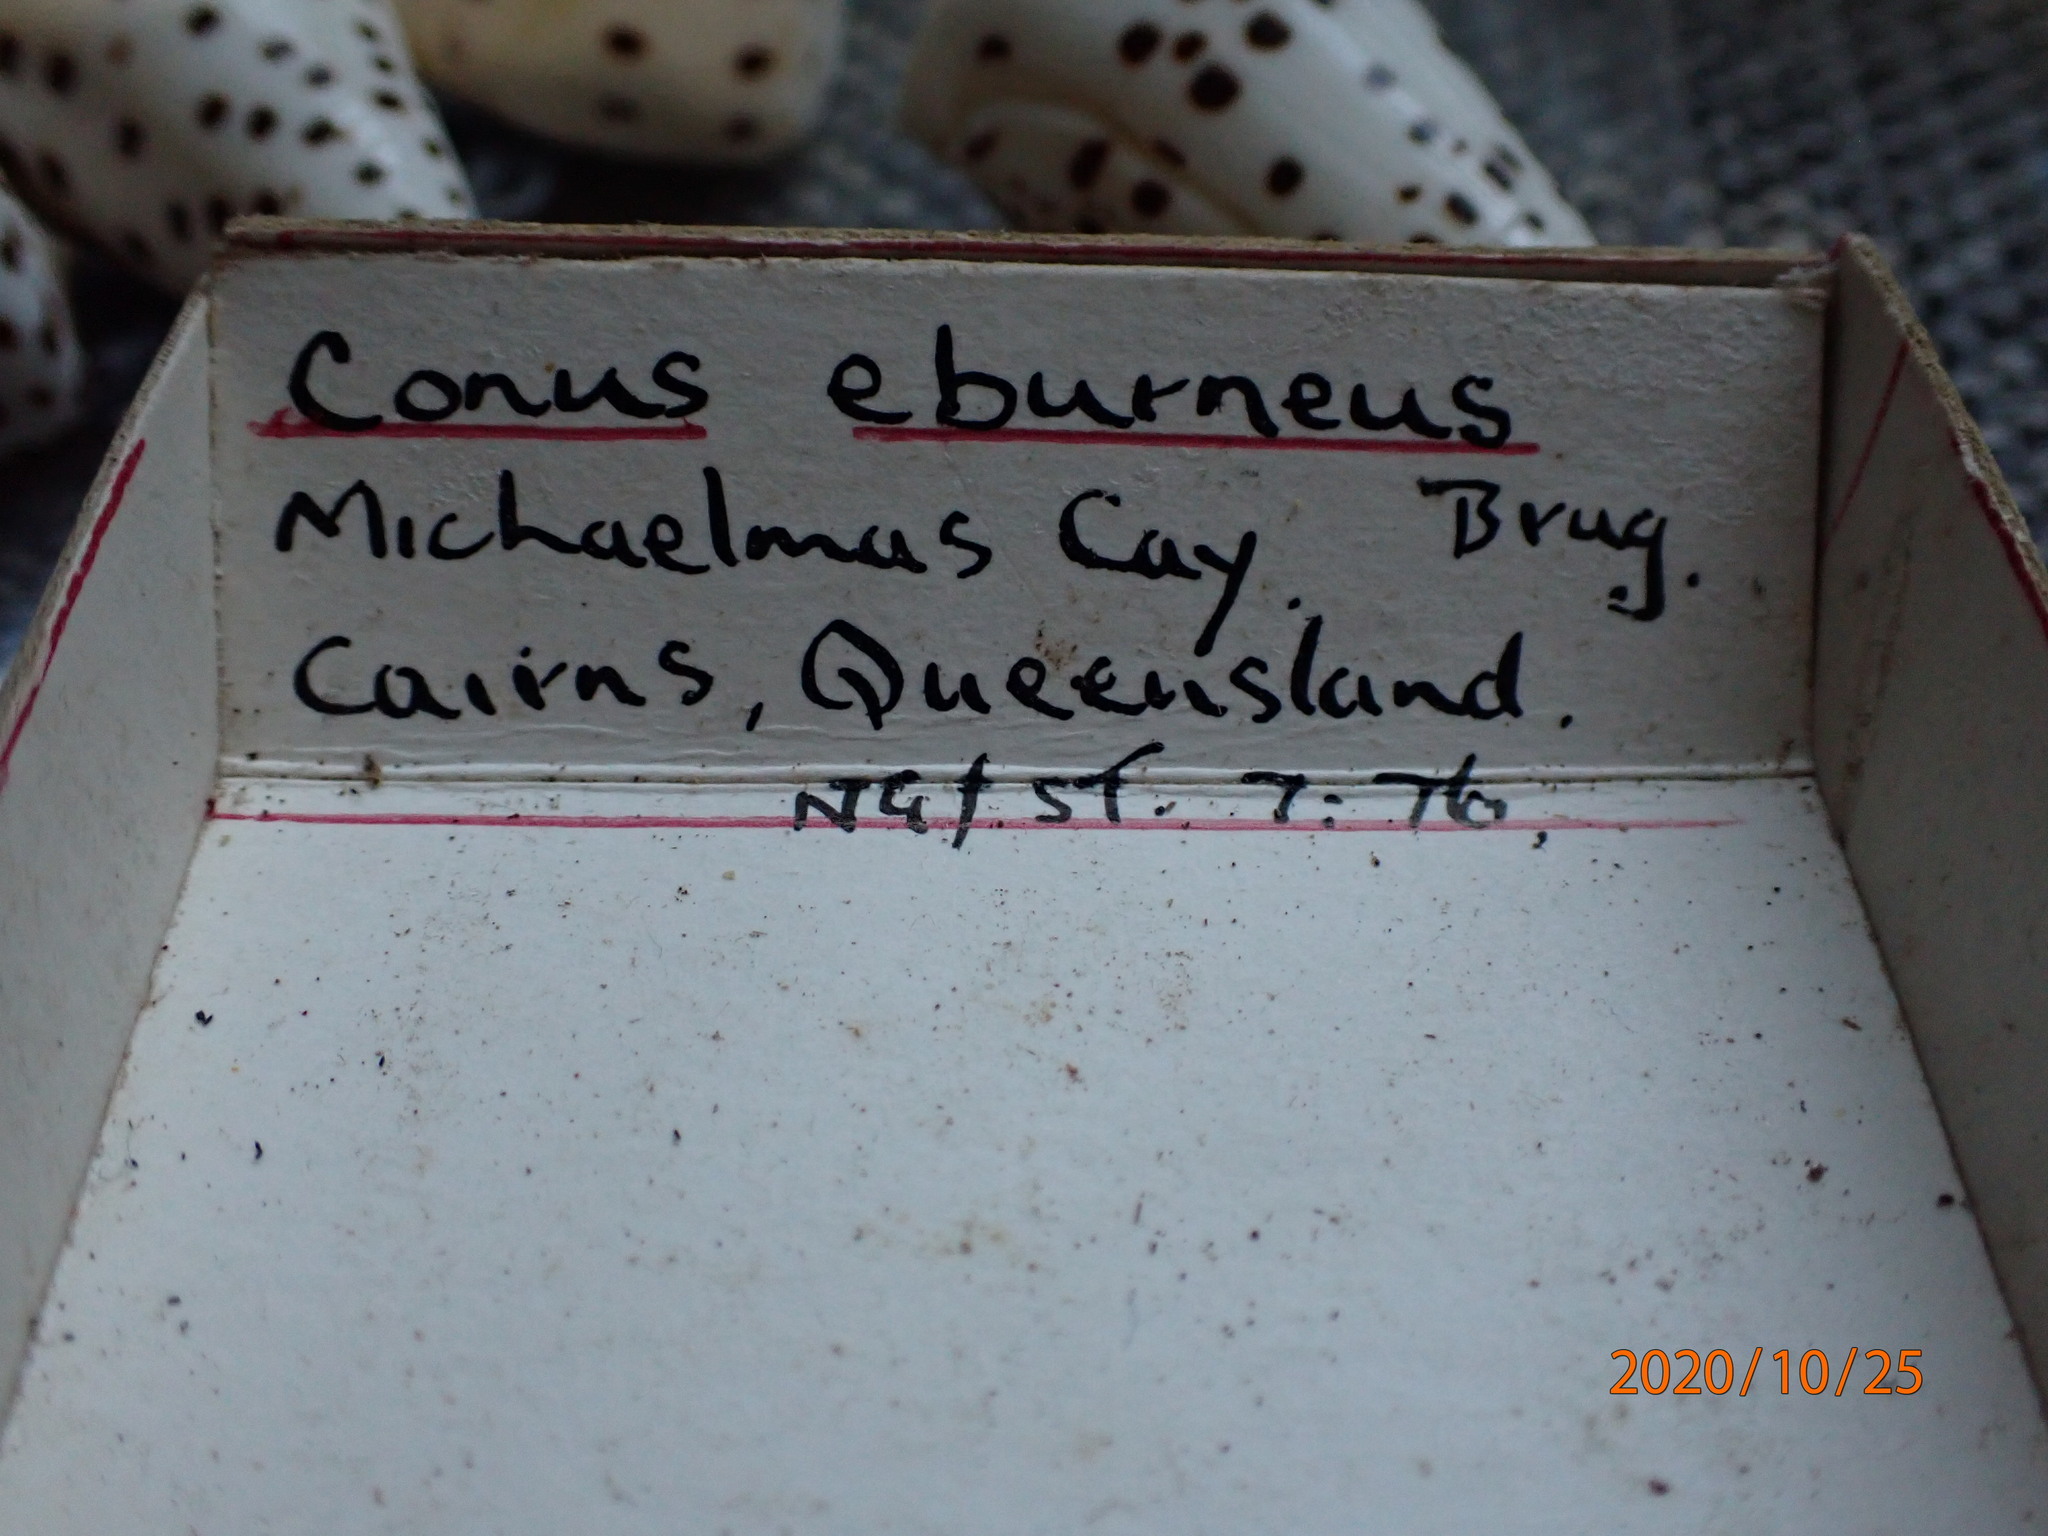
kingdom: Animalia
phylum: Mollusca
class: Gastropoda
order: Neogastropoda
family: Conidae
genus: Conus
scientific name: Conus eburneus
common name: Ivory cone
